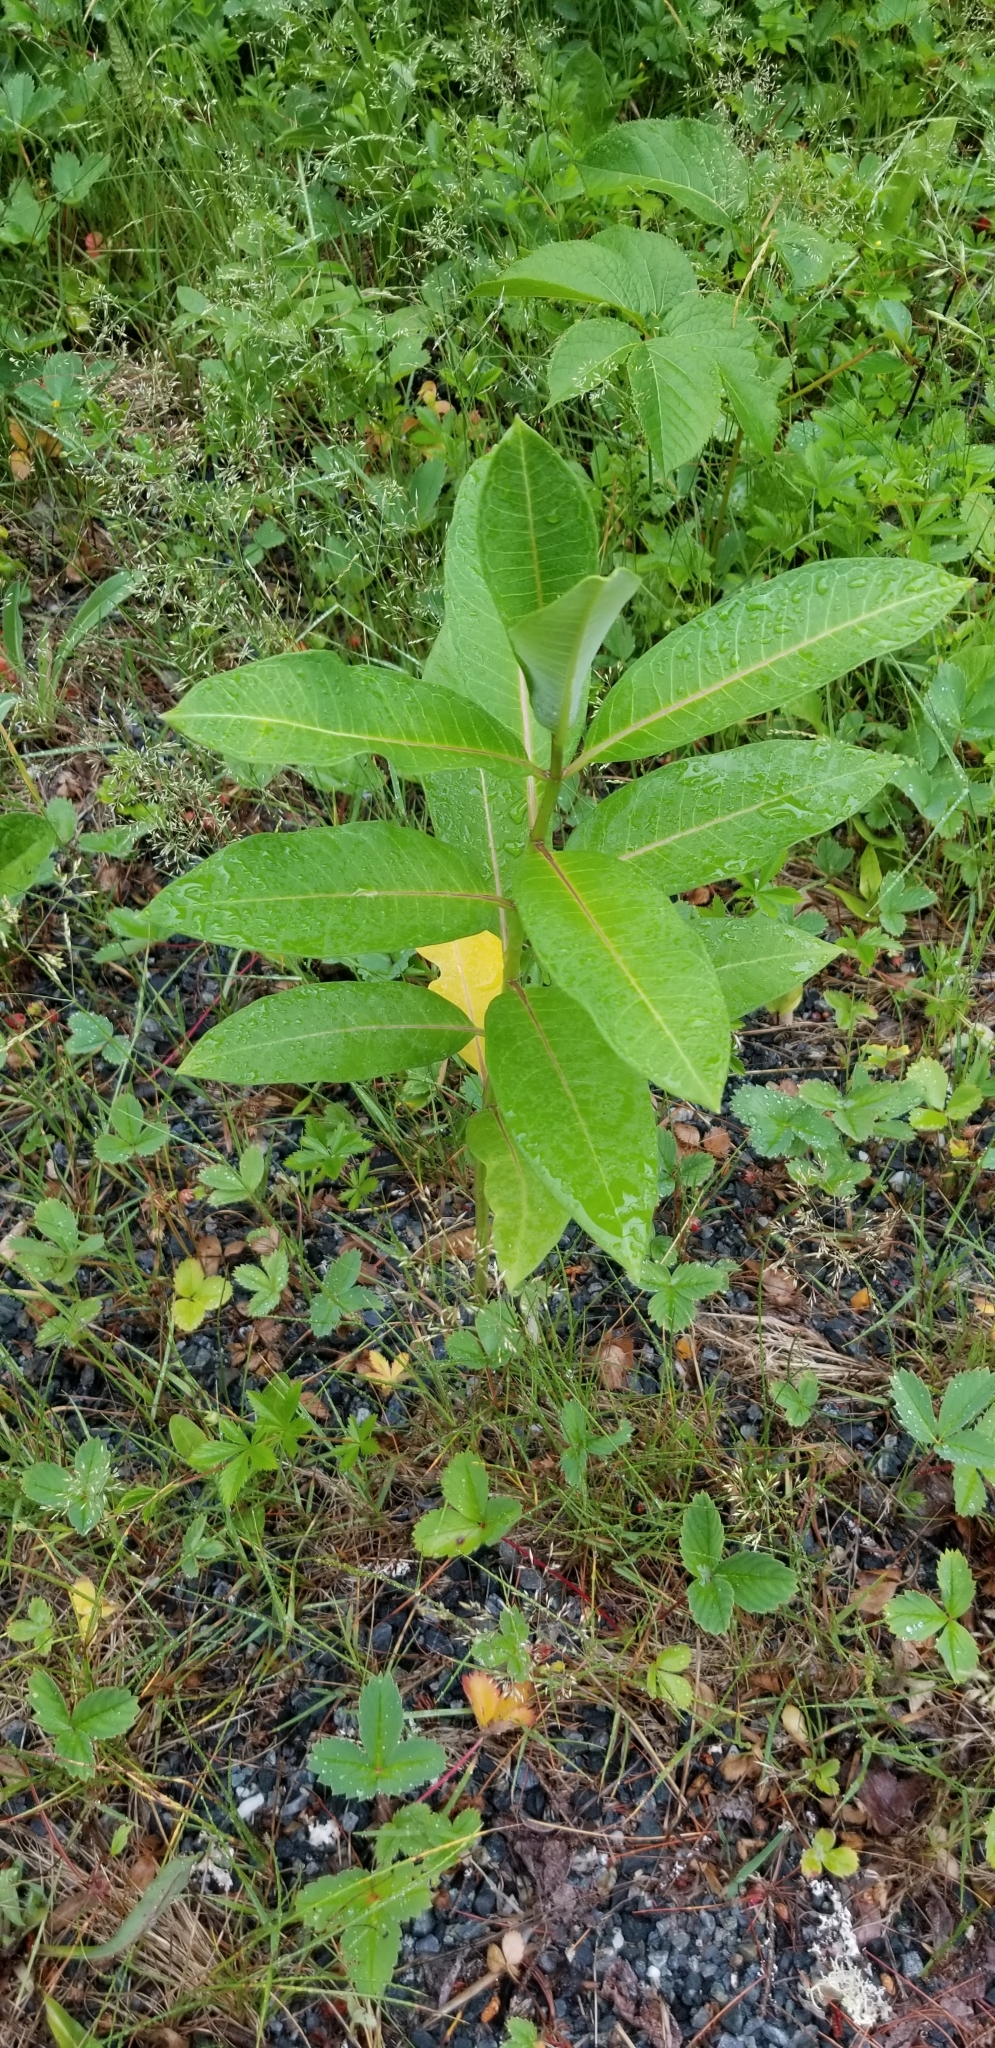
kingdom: Plantae
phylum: Tracheophyta
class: Magnoliopsida
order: Gentianales
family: Apocynaceae
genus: Asclepias
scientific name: Asclepias syriaca
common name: Common milkweed
